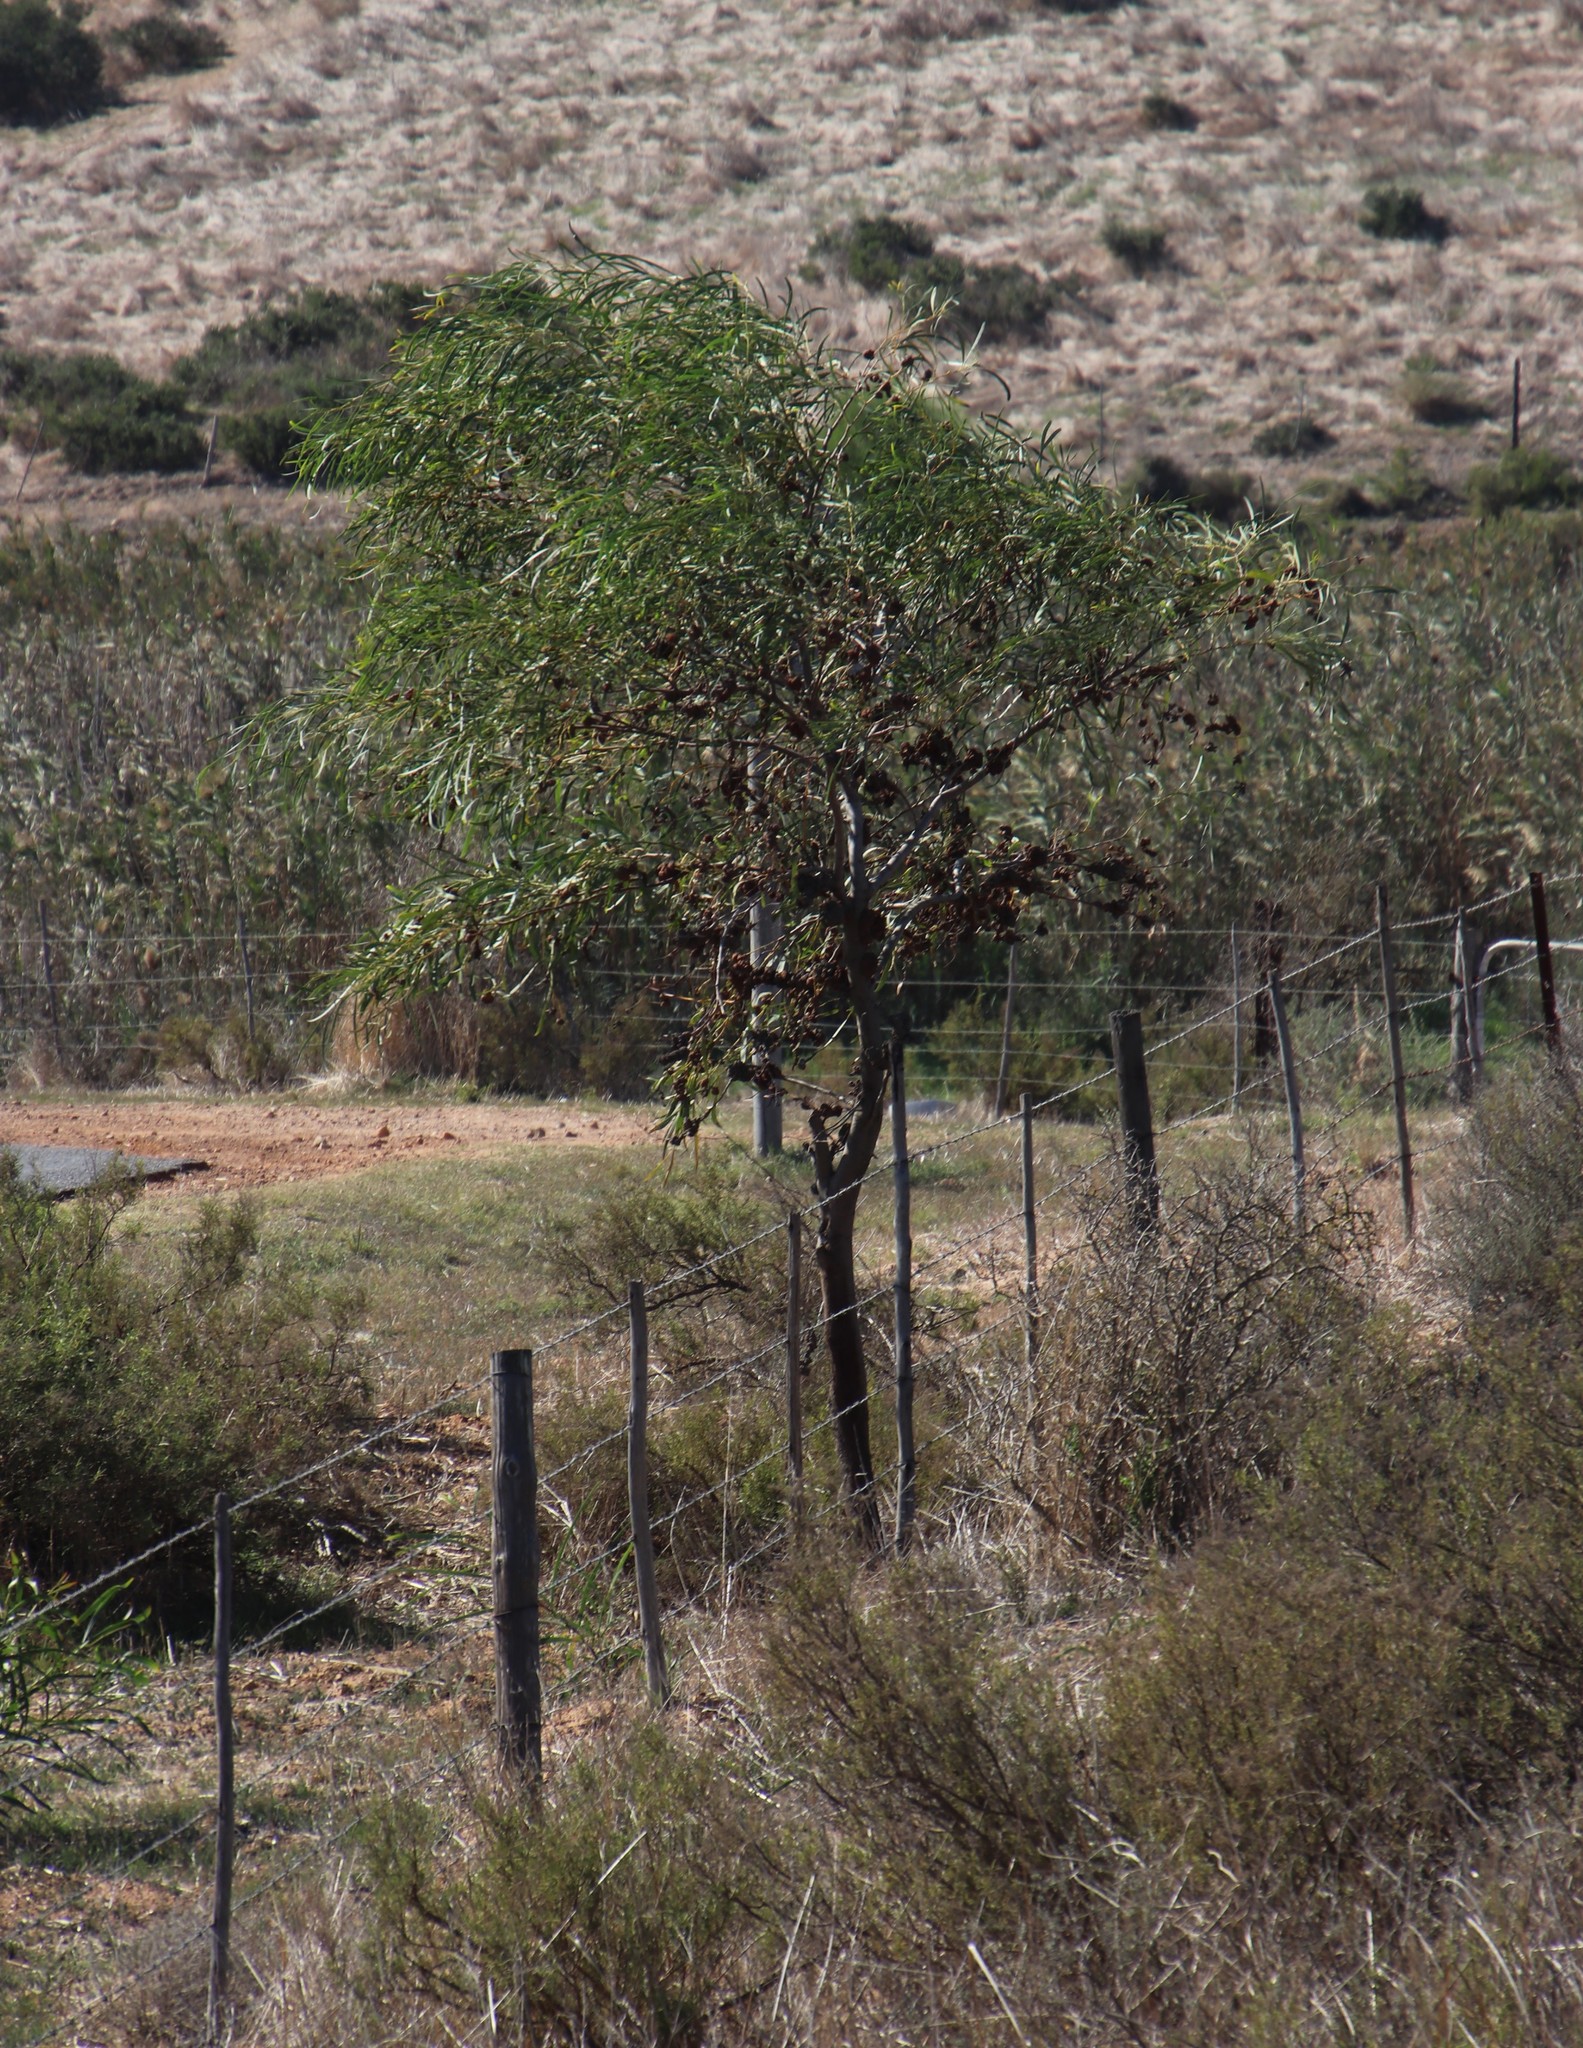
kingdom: Plantae
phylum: Tracheophyta
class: Magnoliopsida
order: Fabales
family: Fabaceae
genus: Acacia
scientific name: Acacia saligna
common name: Orange wattle
